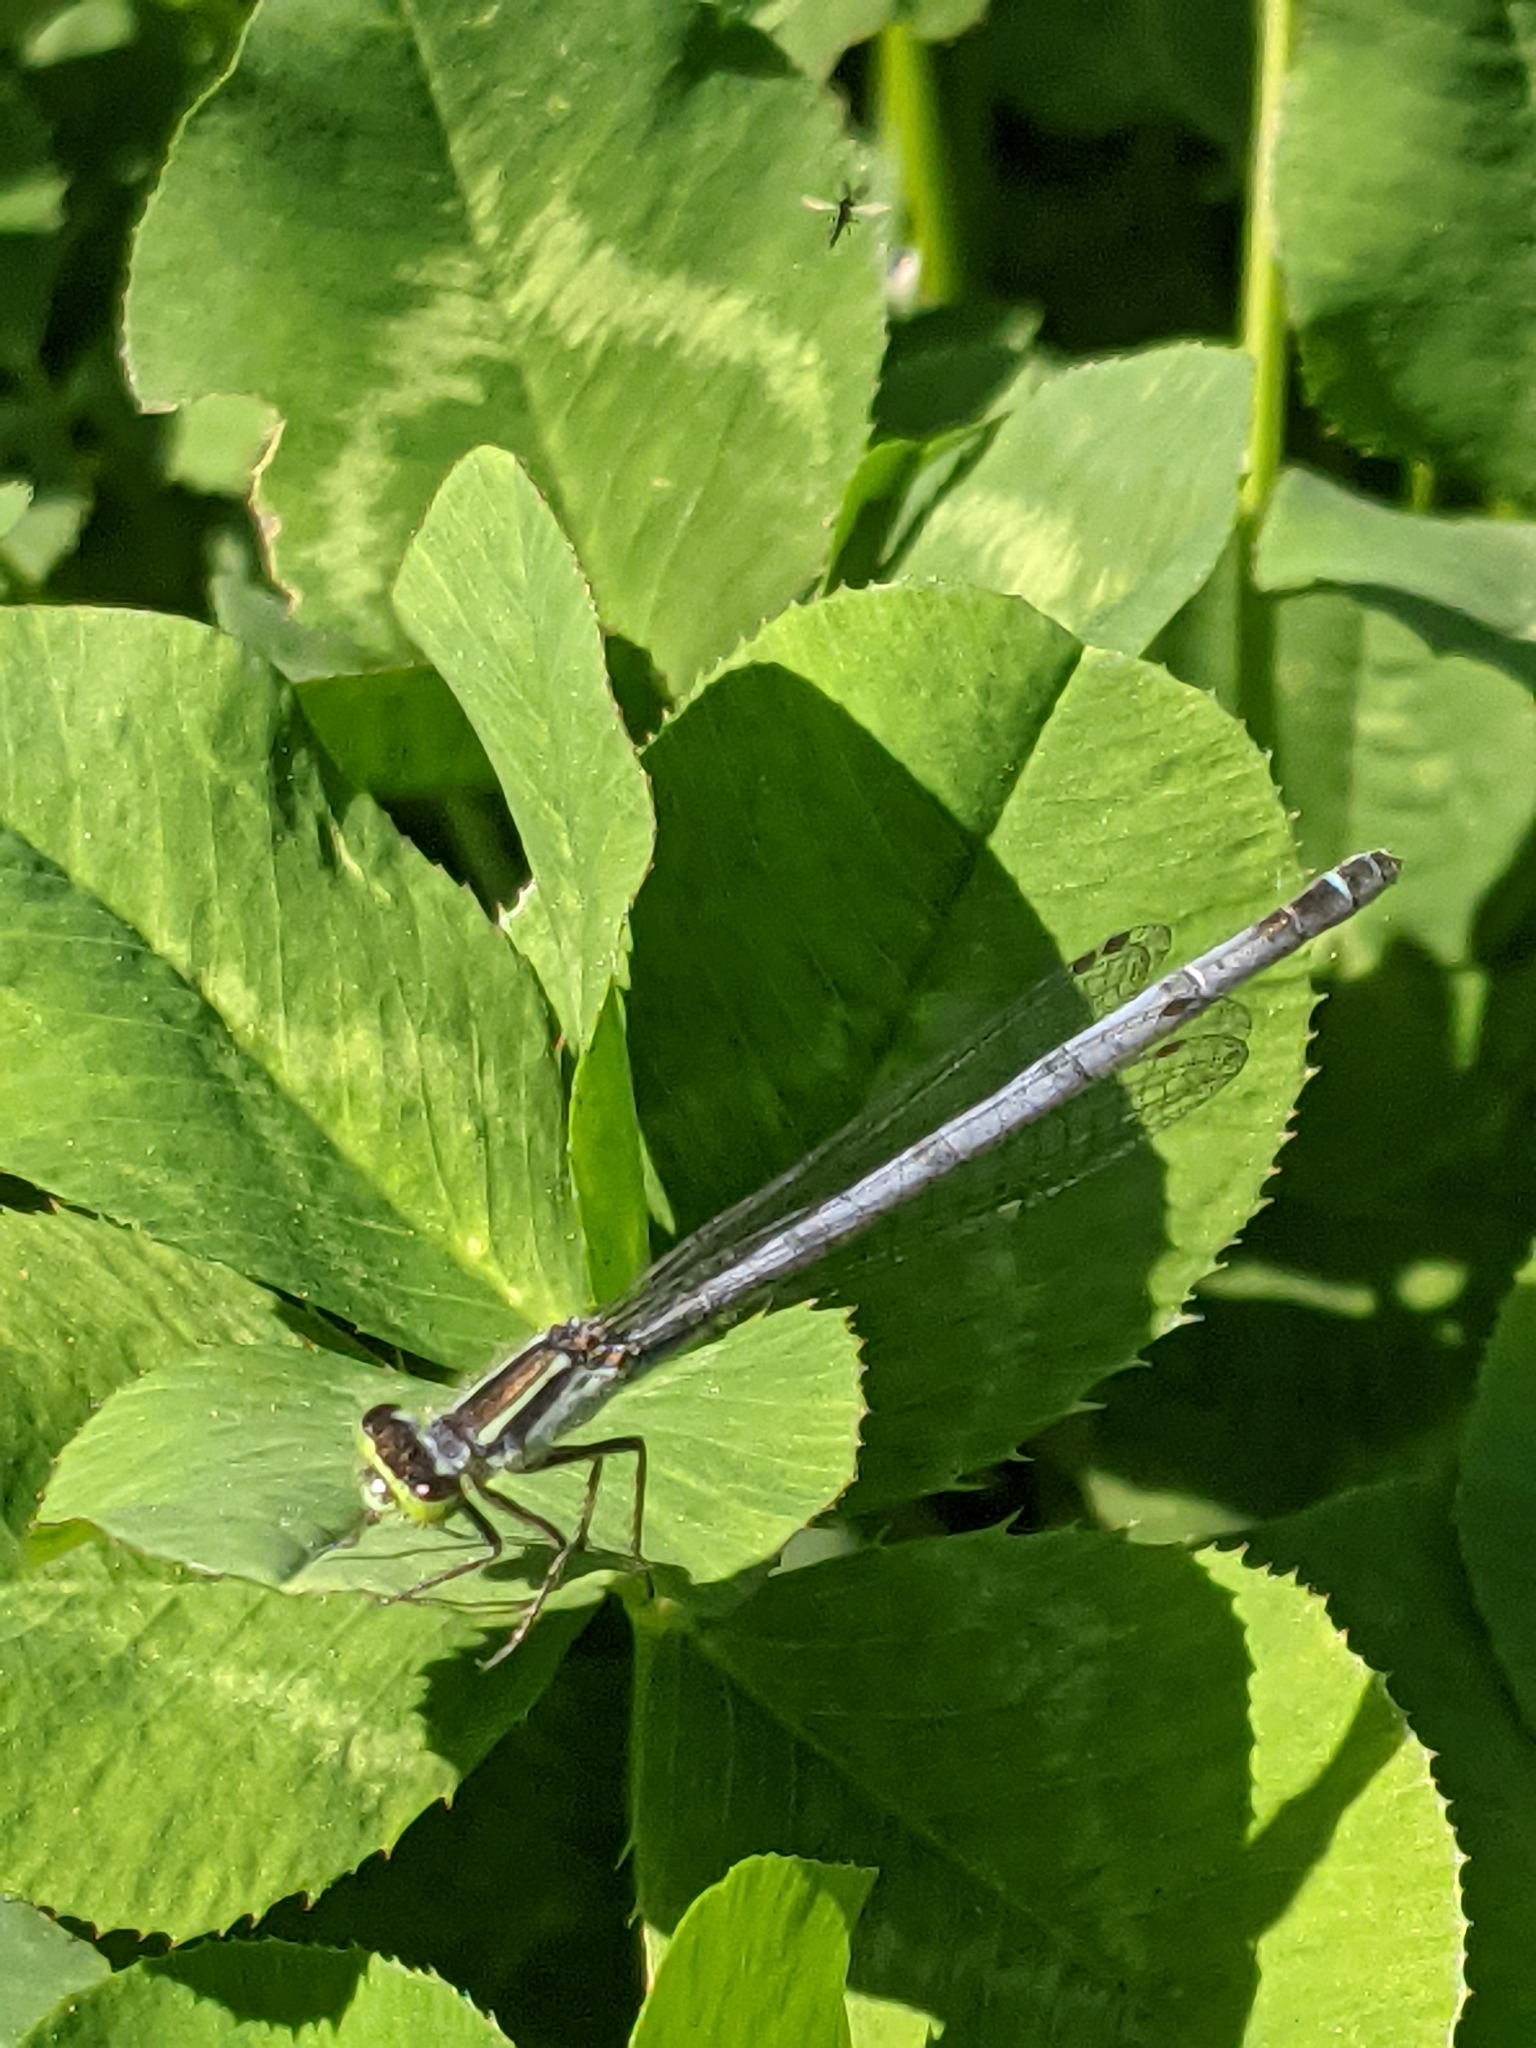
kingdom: Animalia
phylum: Arthropoda
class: Insecta
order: Odonata
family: Coenagrionidae
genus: Ischnura
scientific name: Ischnura verticalis
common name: Eastern forktail
